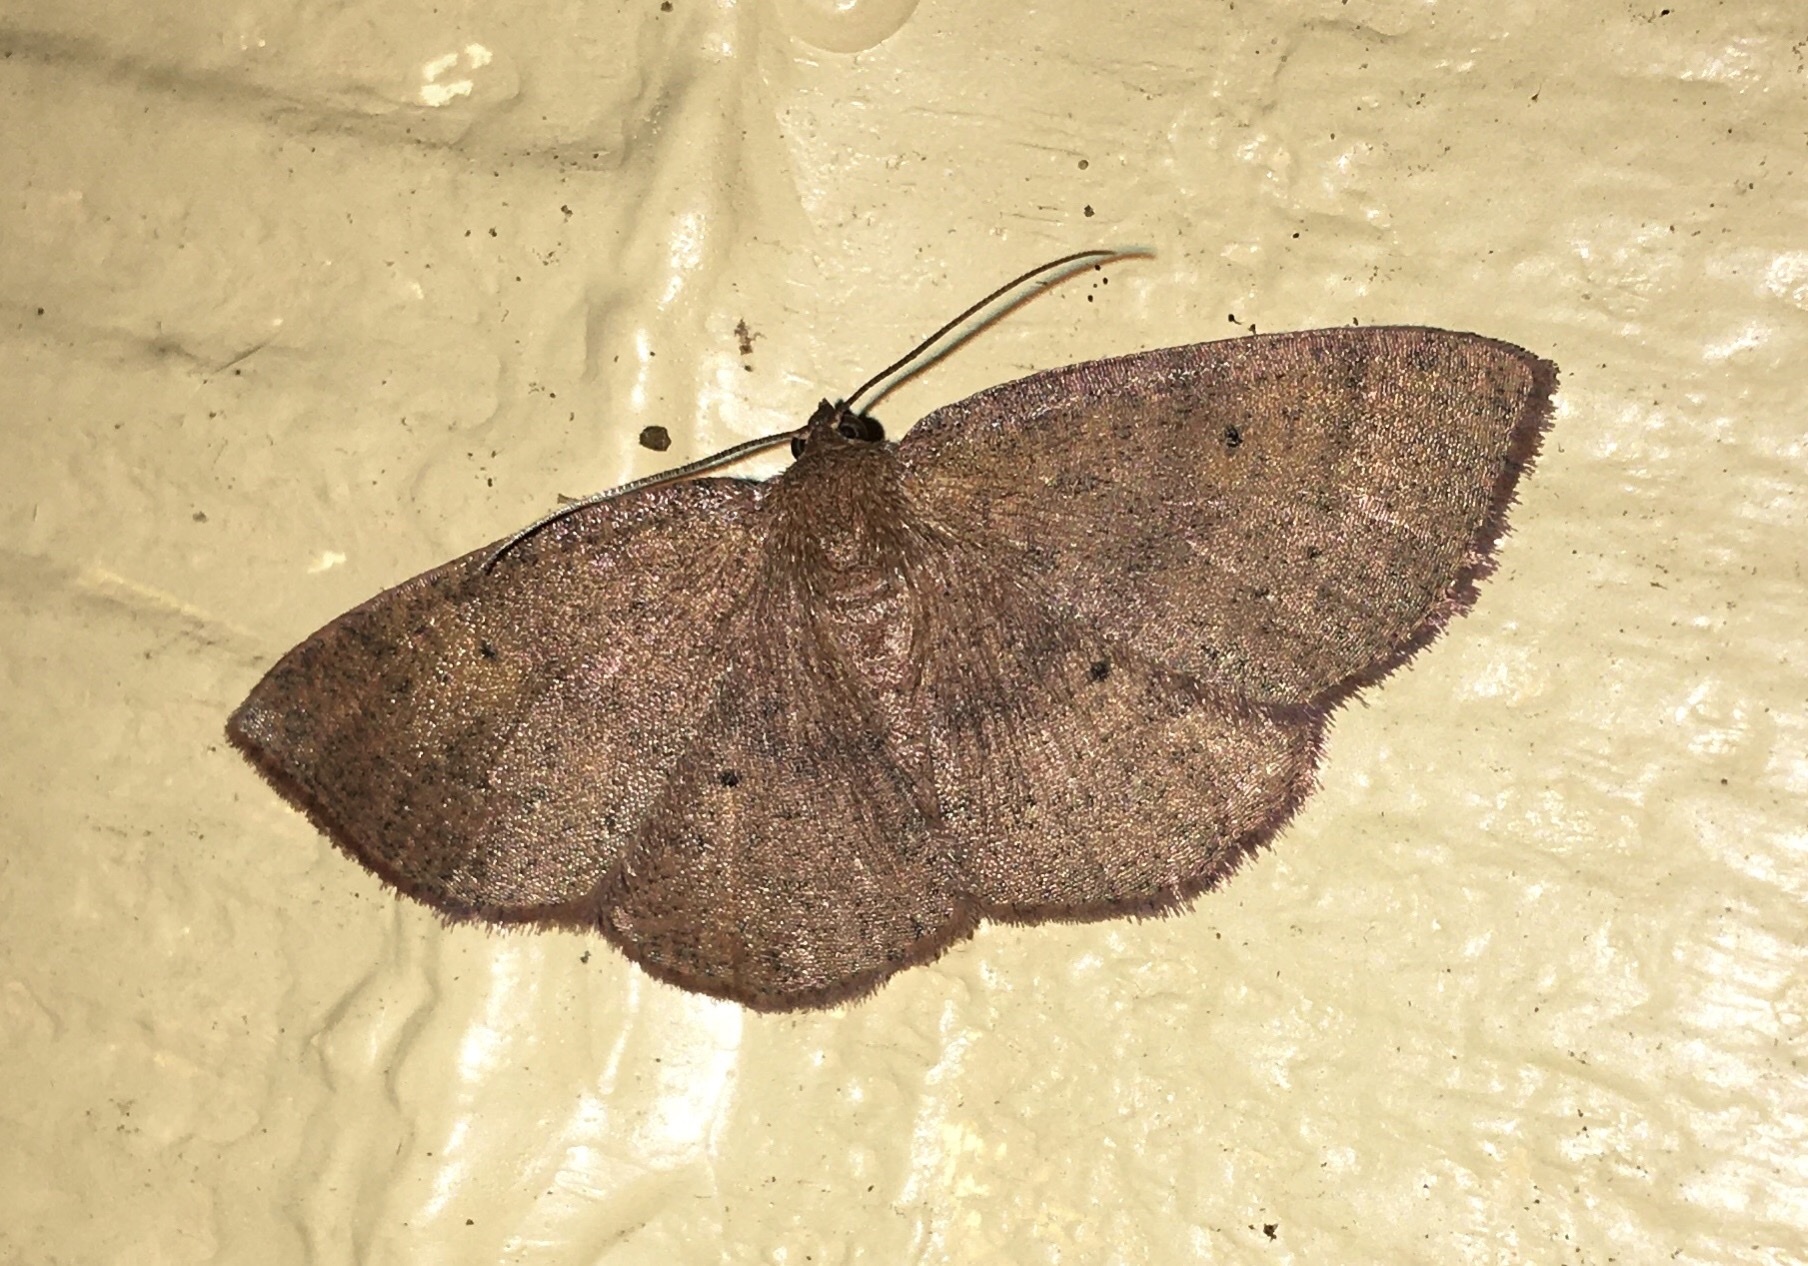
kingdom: Animalia
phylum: Arthropoda
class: Insecta
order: Lepidoptera
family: Geometridae
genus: Ilexia
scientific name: Ilexia intractata
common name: Black-dotted ruddy moth
